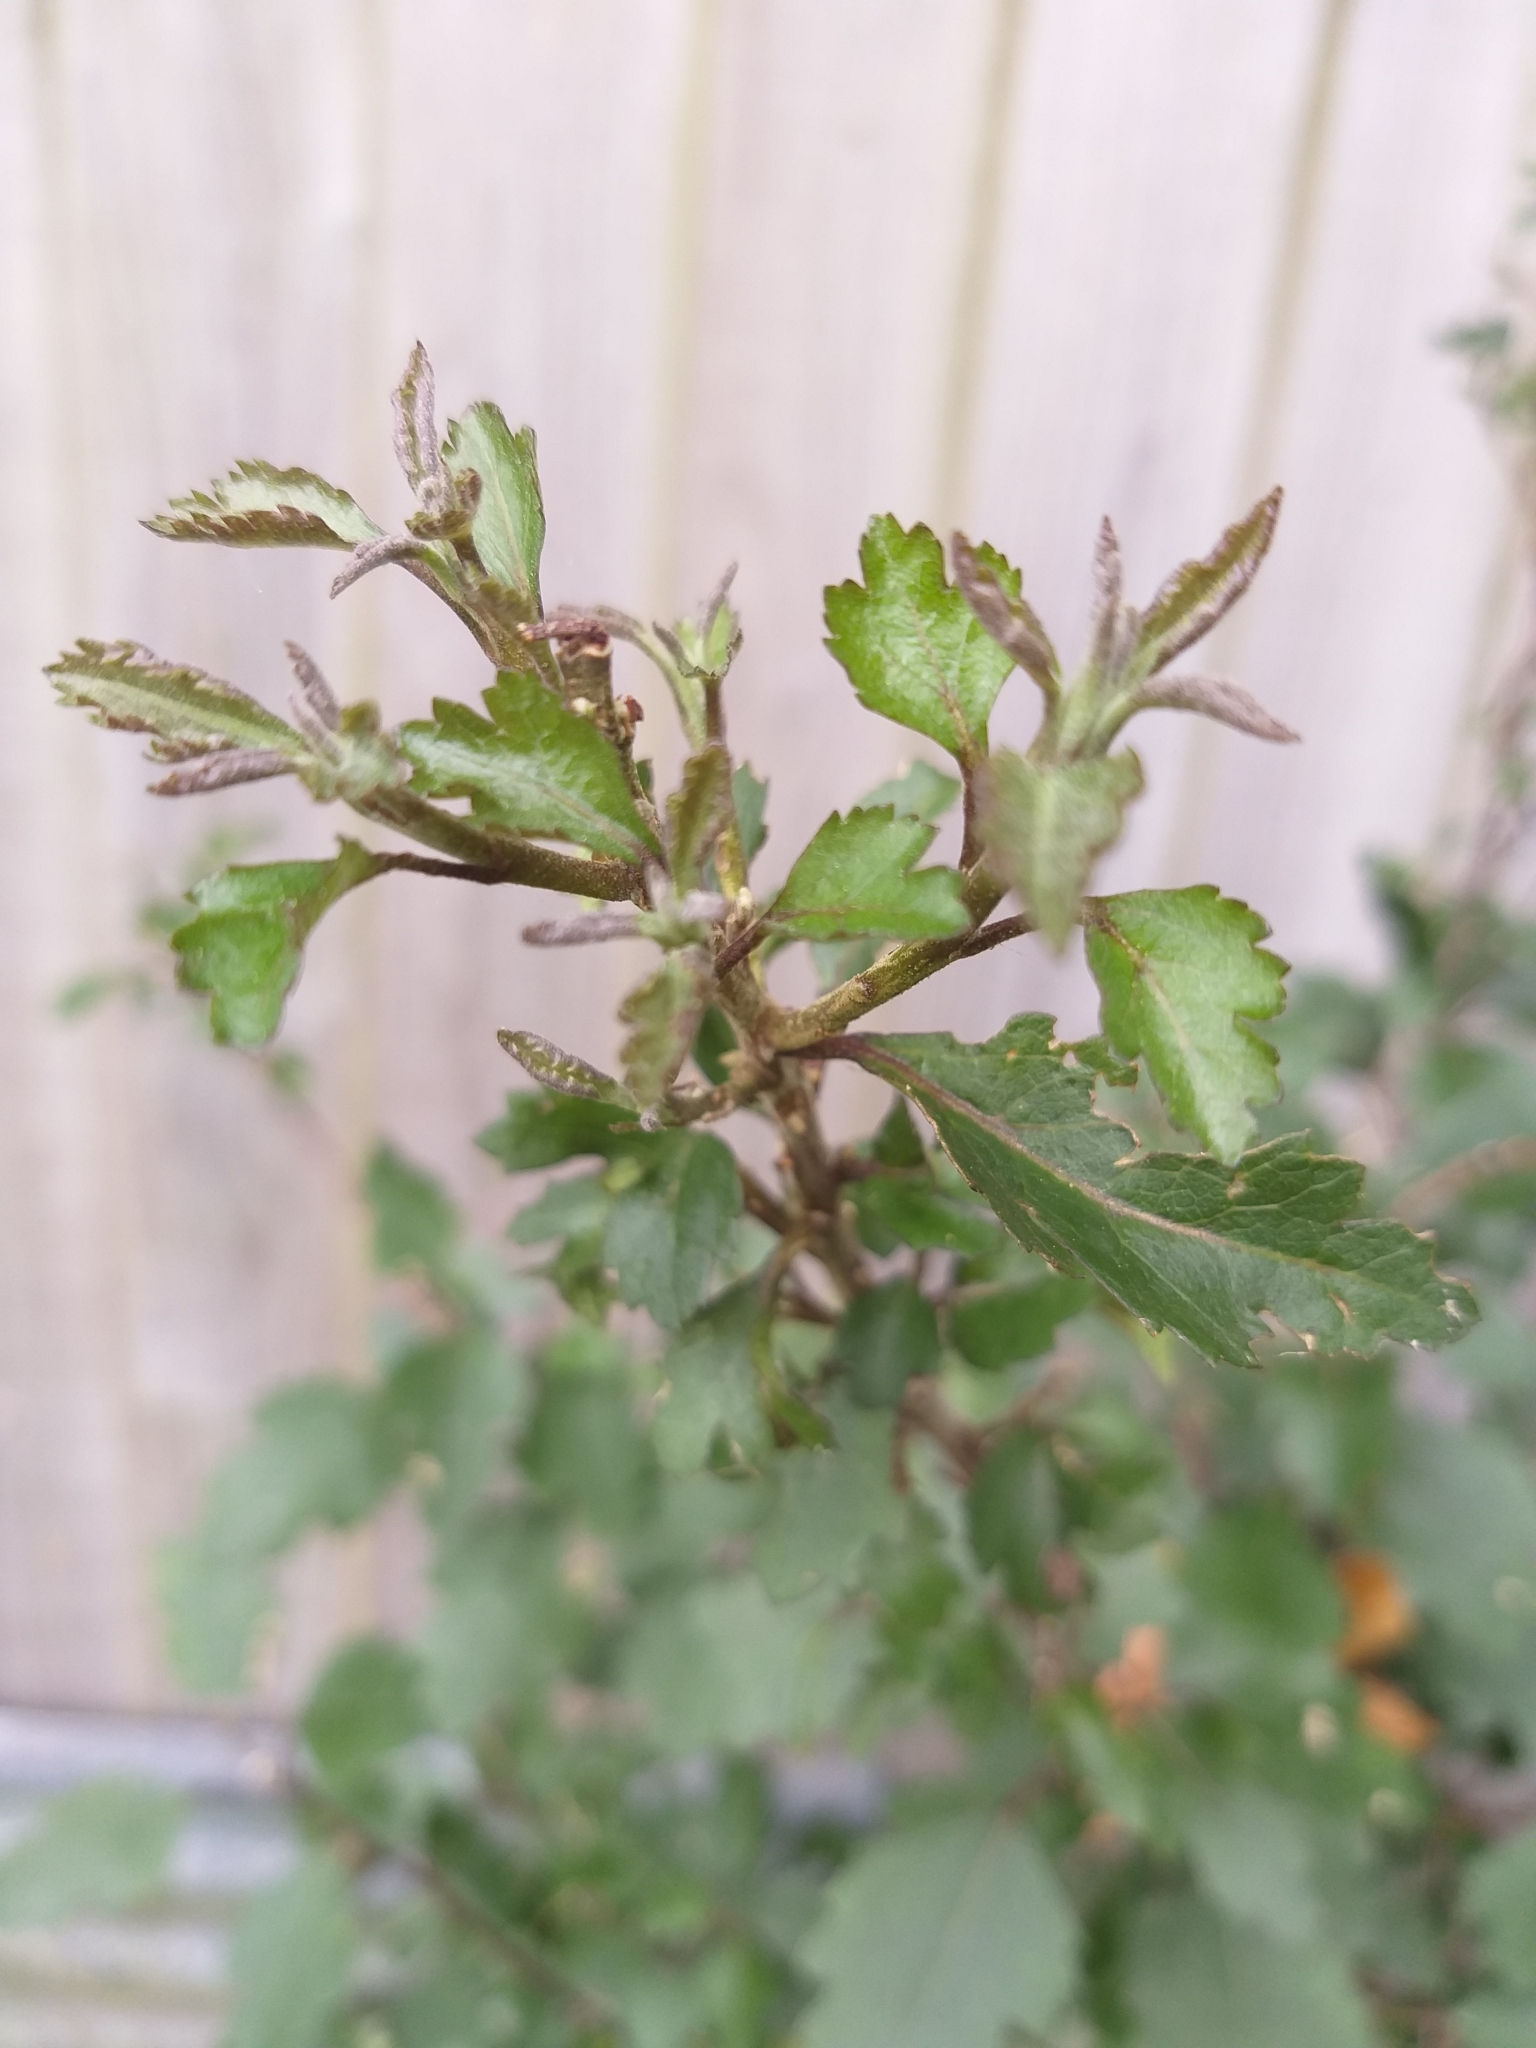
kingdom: Plantae
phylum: Tracheophyta
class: Magnoliopsida
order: Malvales
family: Malvaceae
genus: Plagianthus
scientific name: Plagianthus regius
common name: Manatu
